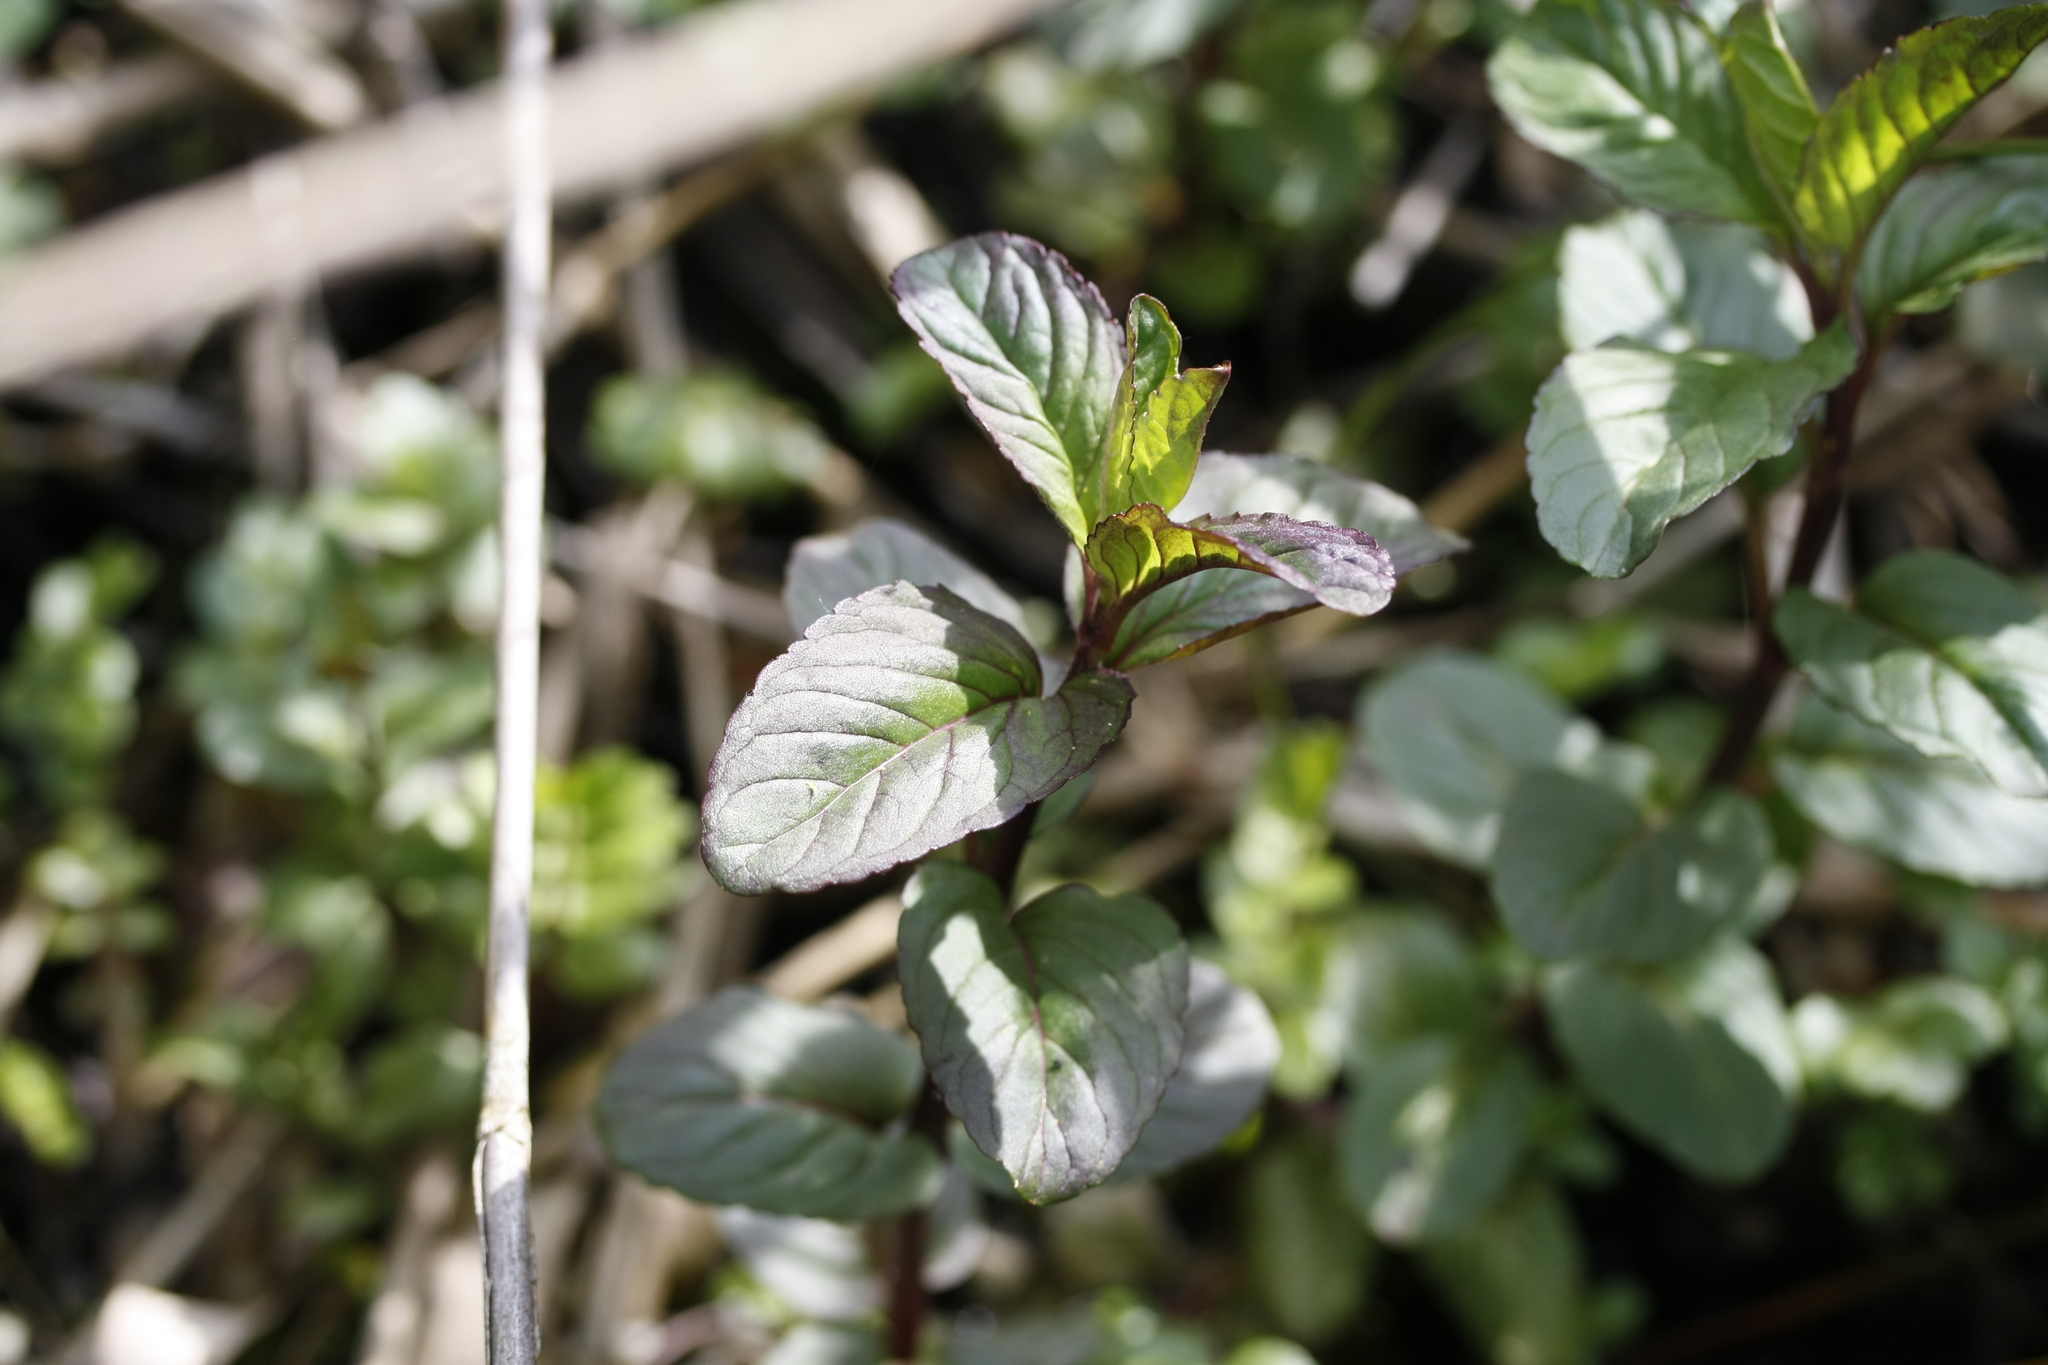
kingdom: Plantae
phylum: Tracheophyta
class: Magnoliopsida
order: Lamiales
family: Lamiaceae
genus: Mentha
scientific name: Mentha aquatica
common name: Water mint
